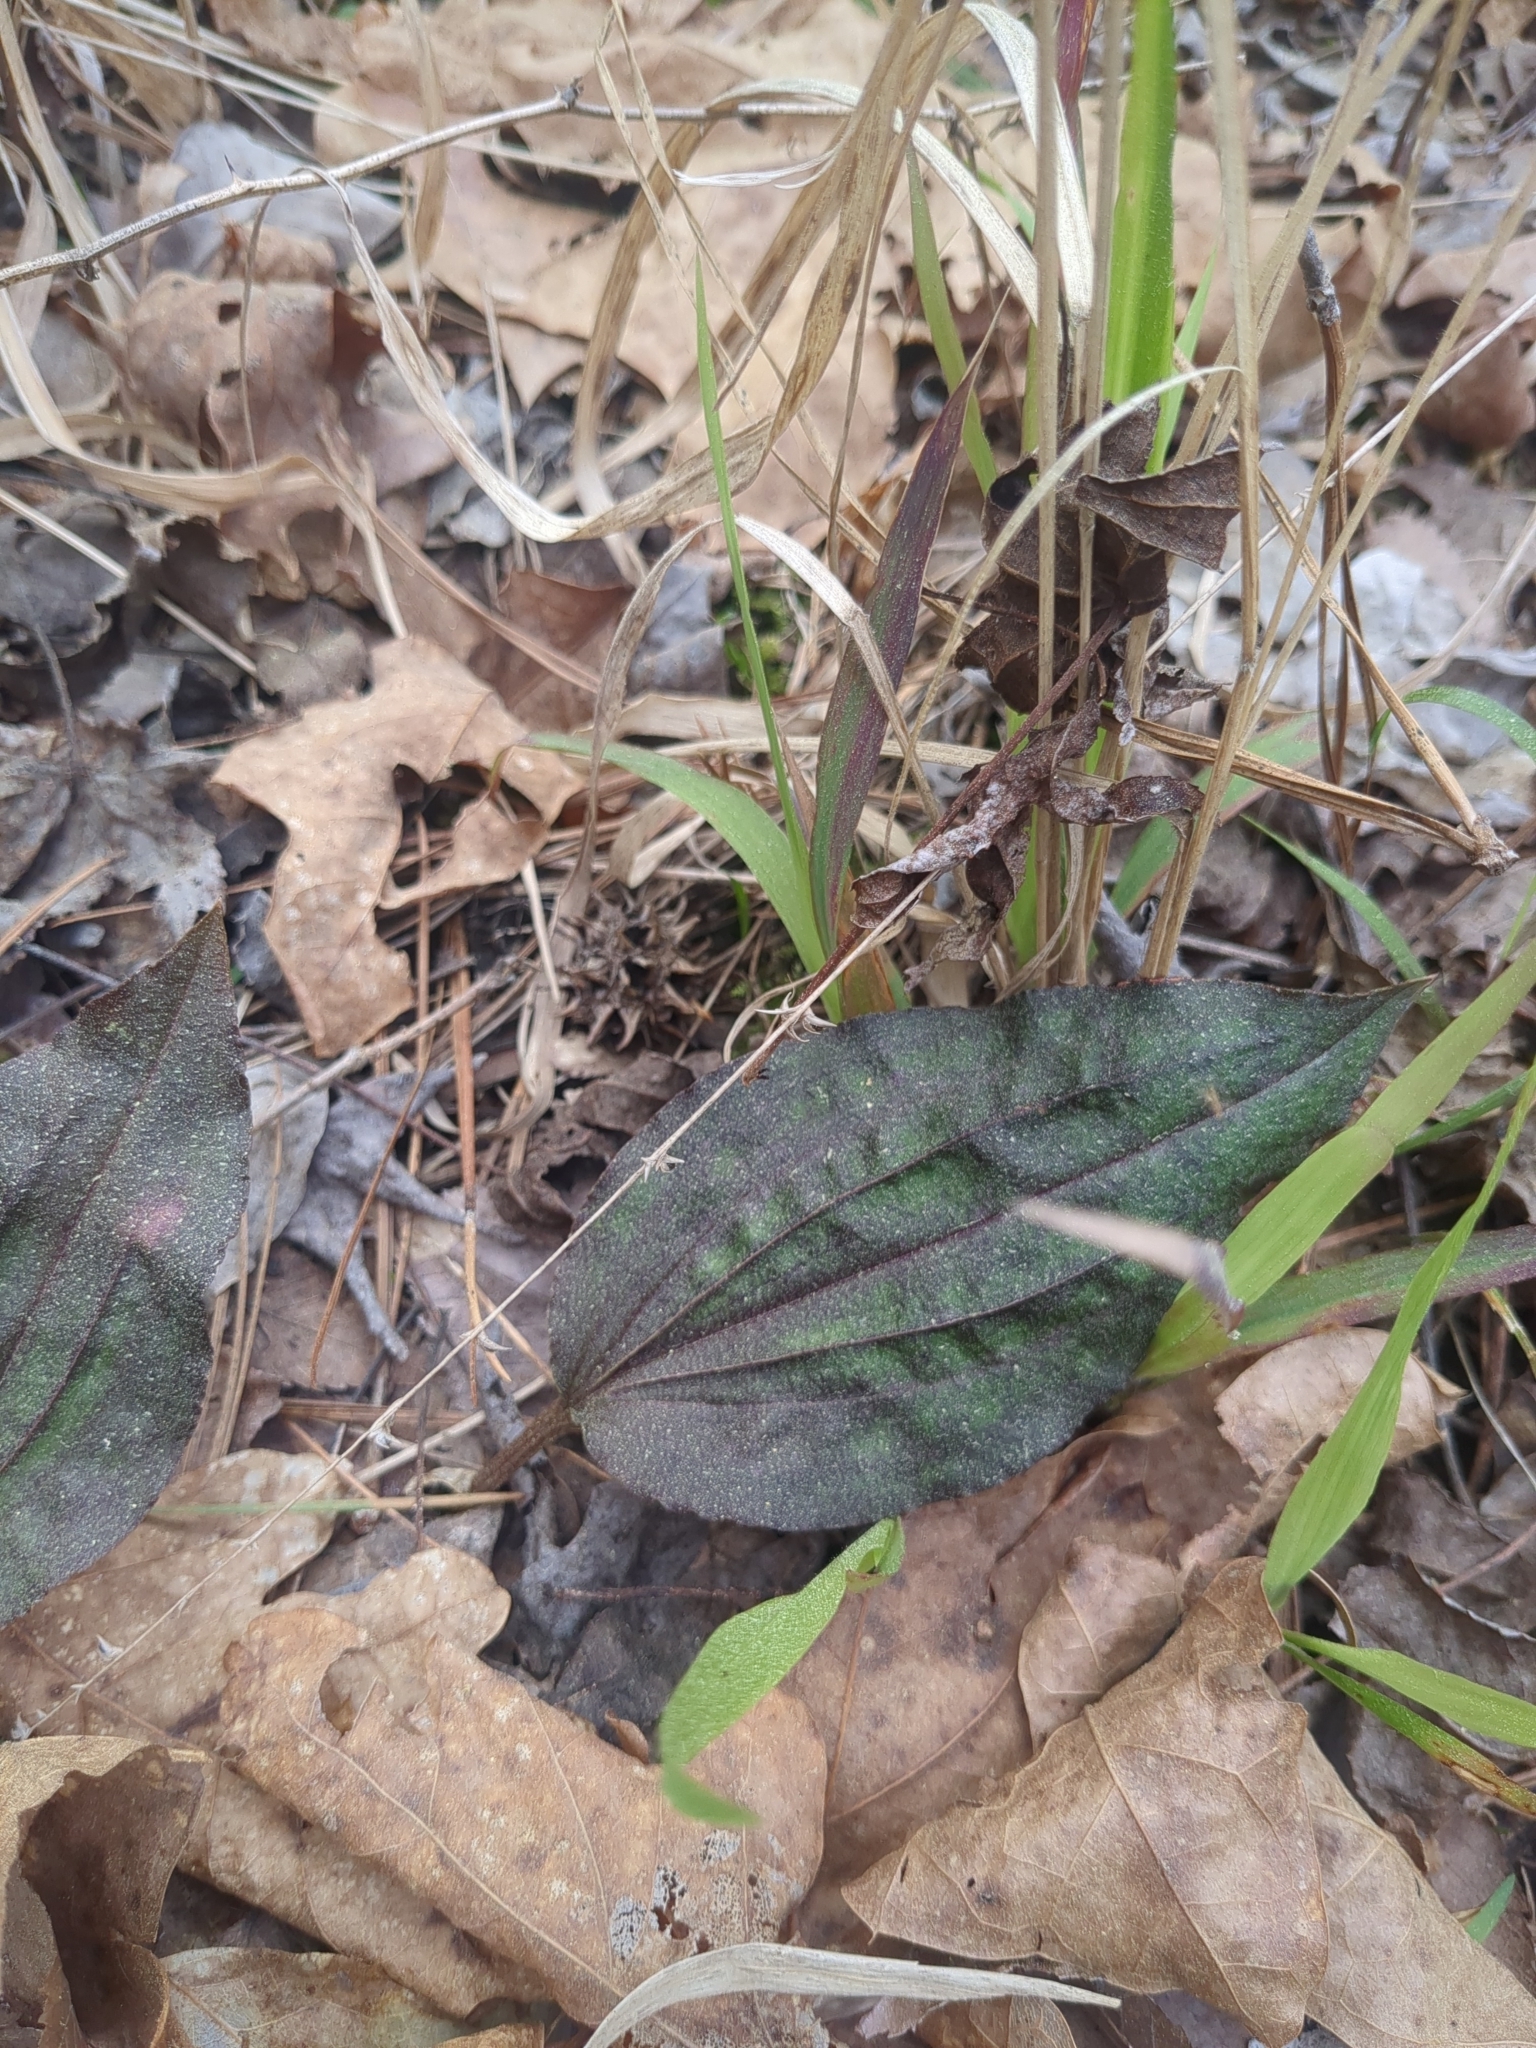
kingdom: Plantae
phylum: Tracheophyta
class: Liliopsida
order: Asparagales
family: Orchidaceae
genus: Tipularia
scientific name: Tipularia discolor
